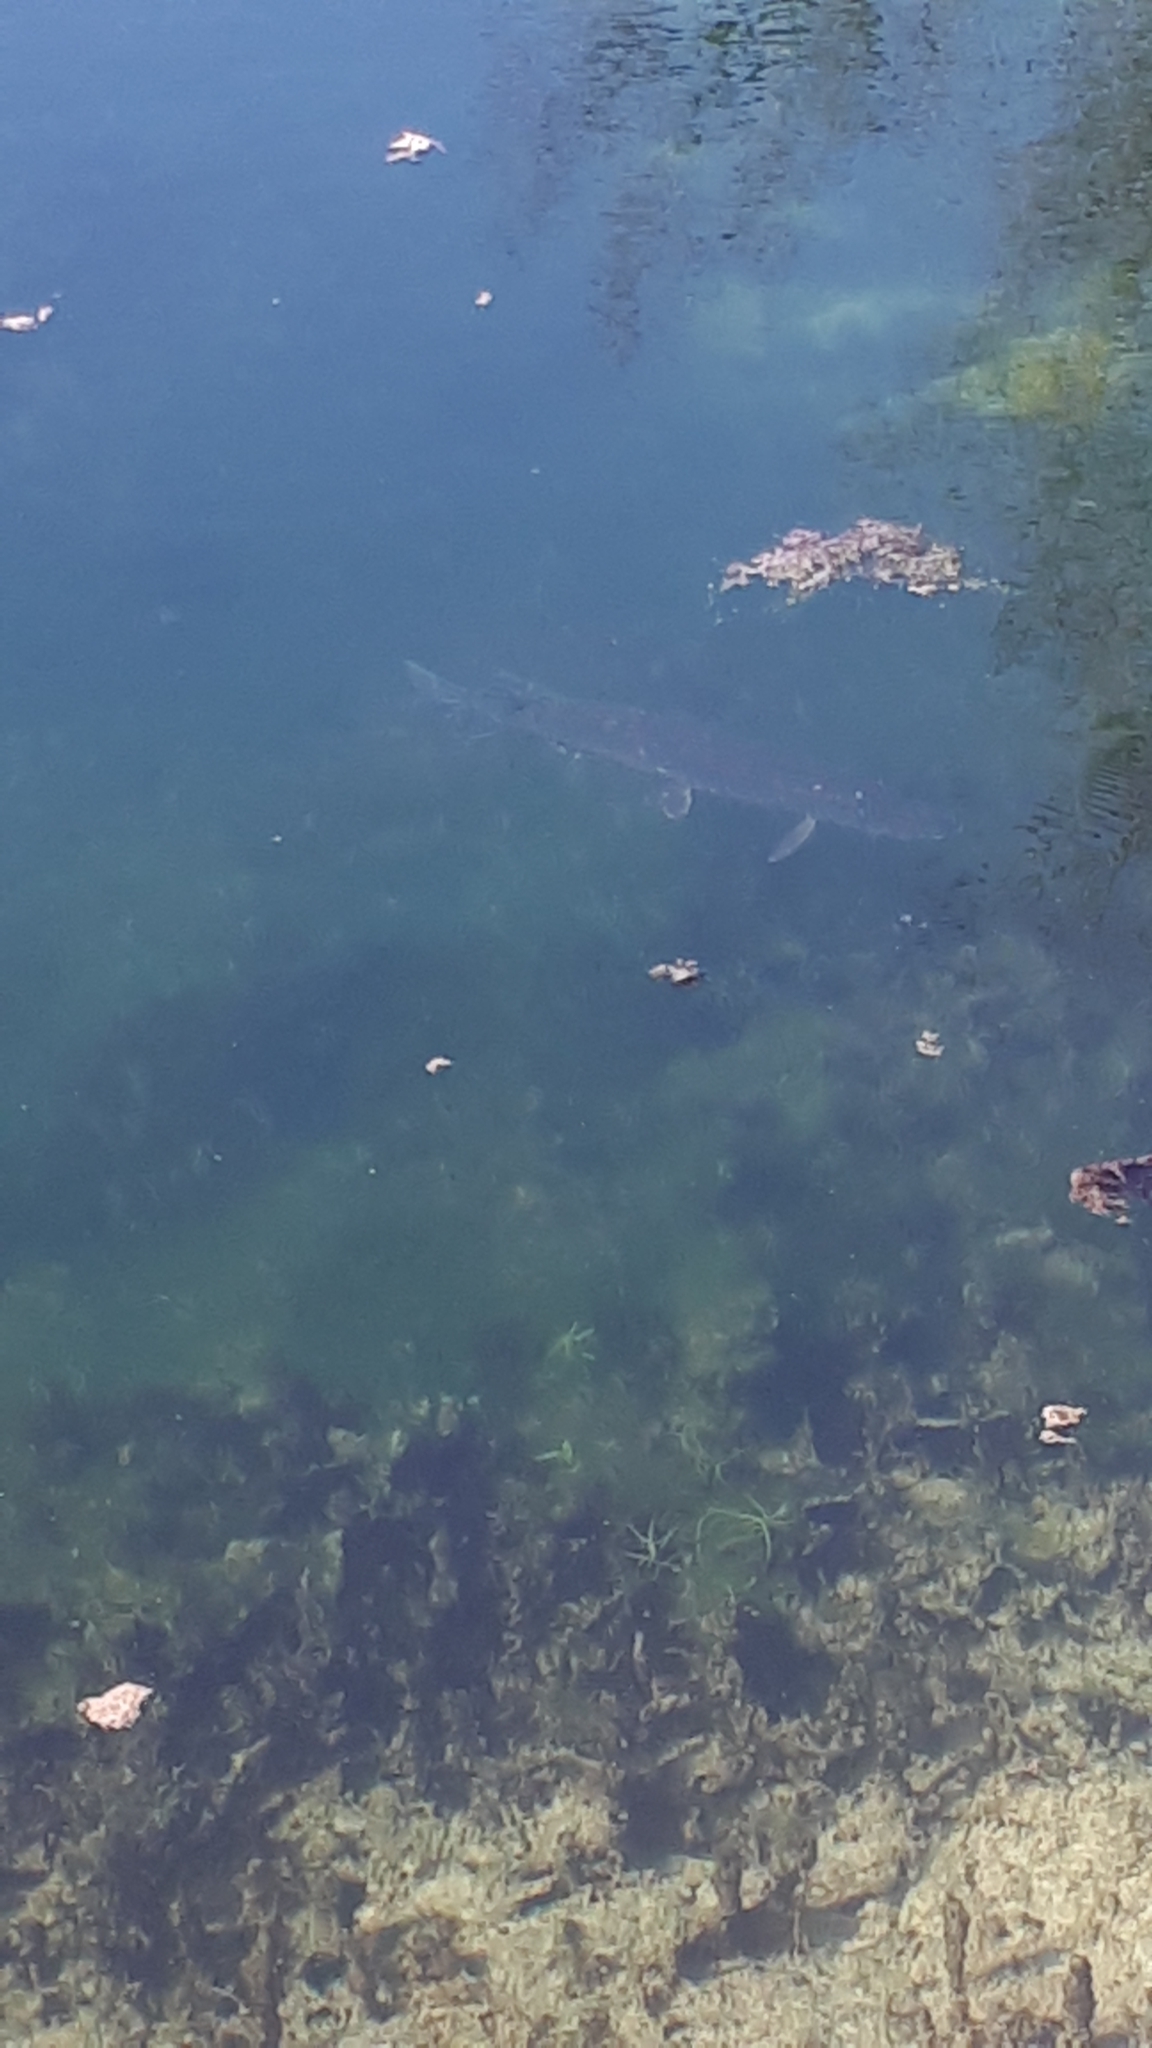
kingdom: Animalia
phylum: Chordata
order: Esociformes
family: Esocidae
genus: Esox
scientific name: Esox lucius
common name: Northern pike
